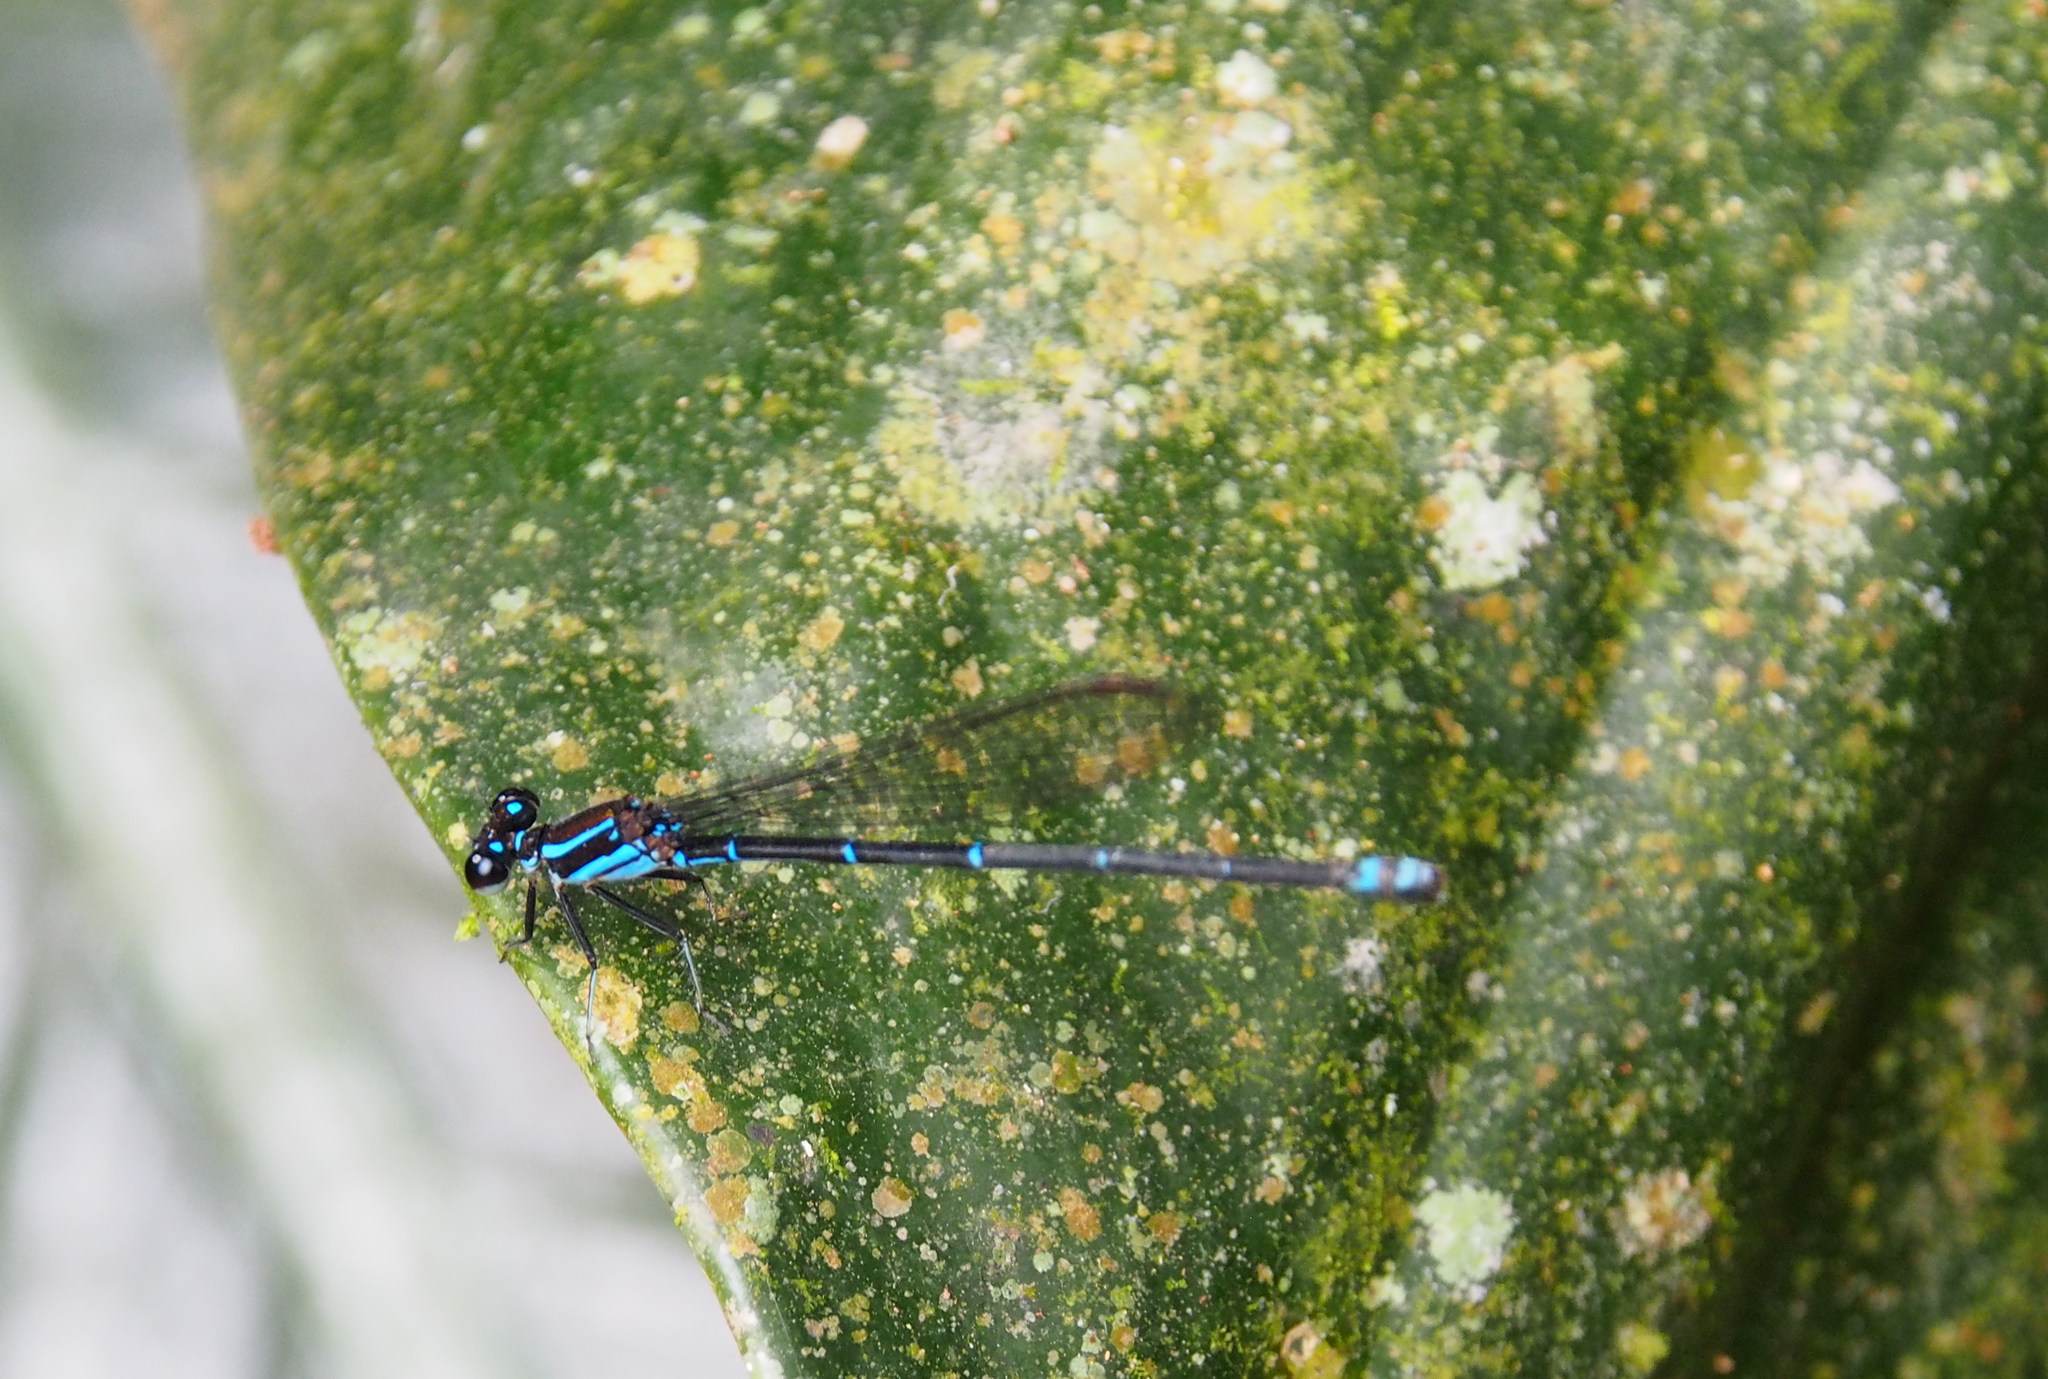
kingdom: Animalia
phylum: Arthropoda
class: Insecta
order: Odonata
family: Coenagrionidae
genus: Argia
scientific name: Argia oculata
